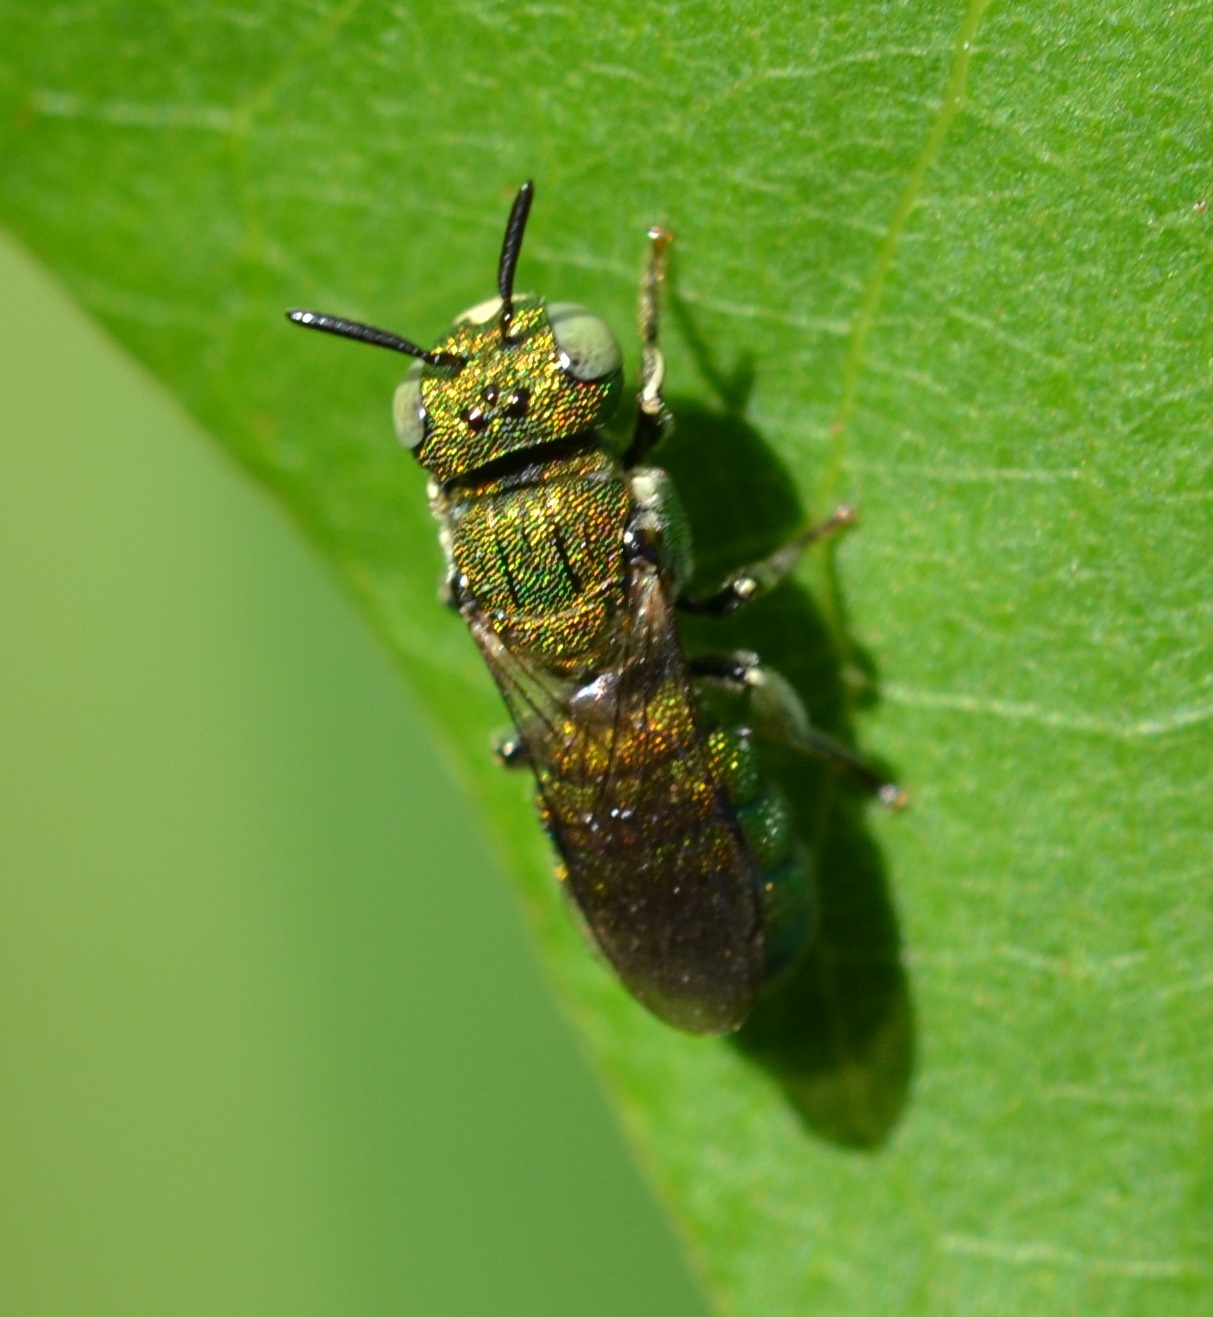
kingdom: Animalia
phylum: Arthropoda
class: Insecta
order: Hymenoptera
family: Apidae
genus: Ceratina
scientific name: Ceratina smaragdula
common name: Small carpenter bee
